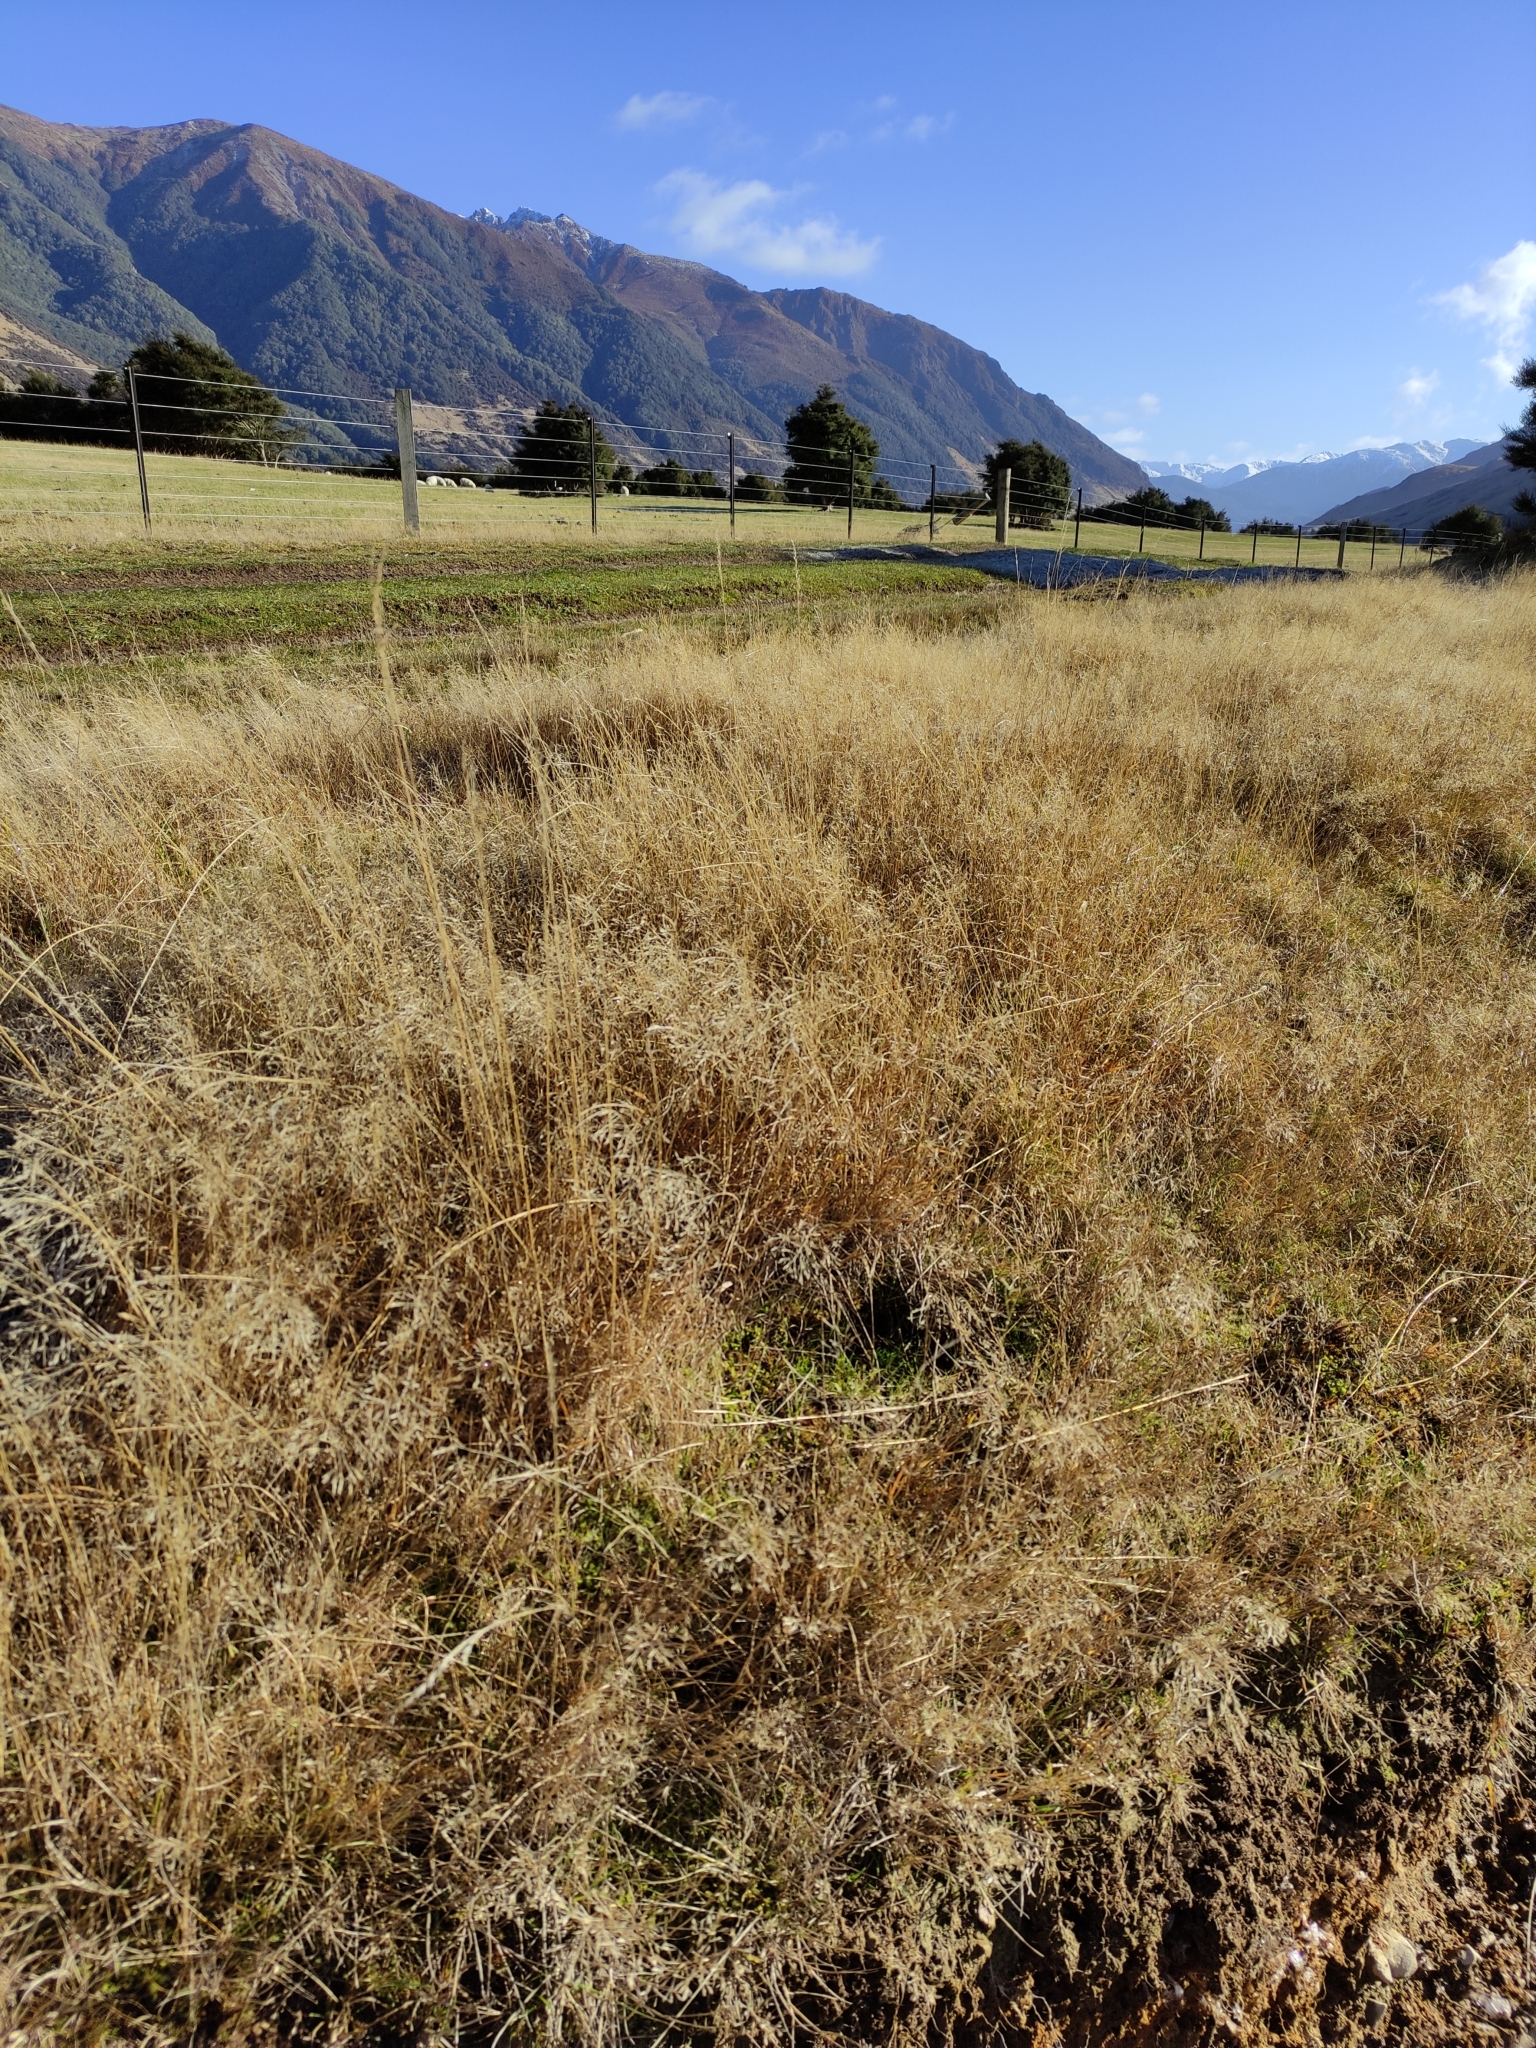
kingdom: Plantae
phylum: Tracheophyta
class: Liliopsida
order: Poales
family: Poaceae
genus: Agrostis
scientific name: Agrostis capillaris
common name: Colonial bentgrass
